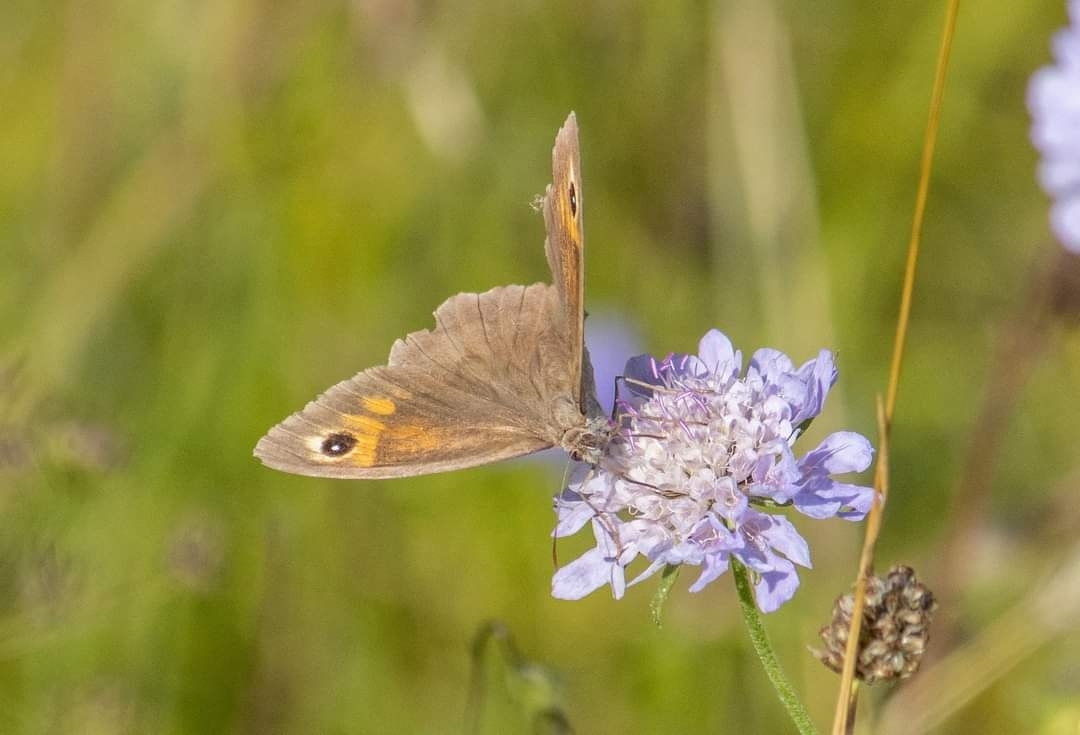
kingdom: Animalia
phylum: Arthropoda
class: Insecta
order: Lepidoptera
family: Nymphalidae
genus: Maniola
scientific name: Maniola jurtina
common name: Meadow brown
